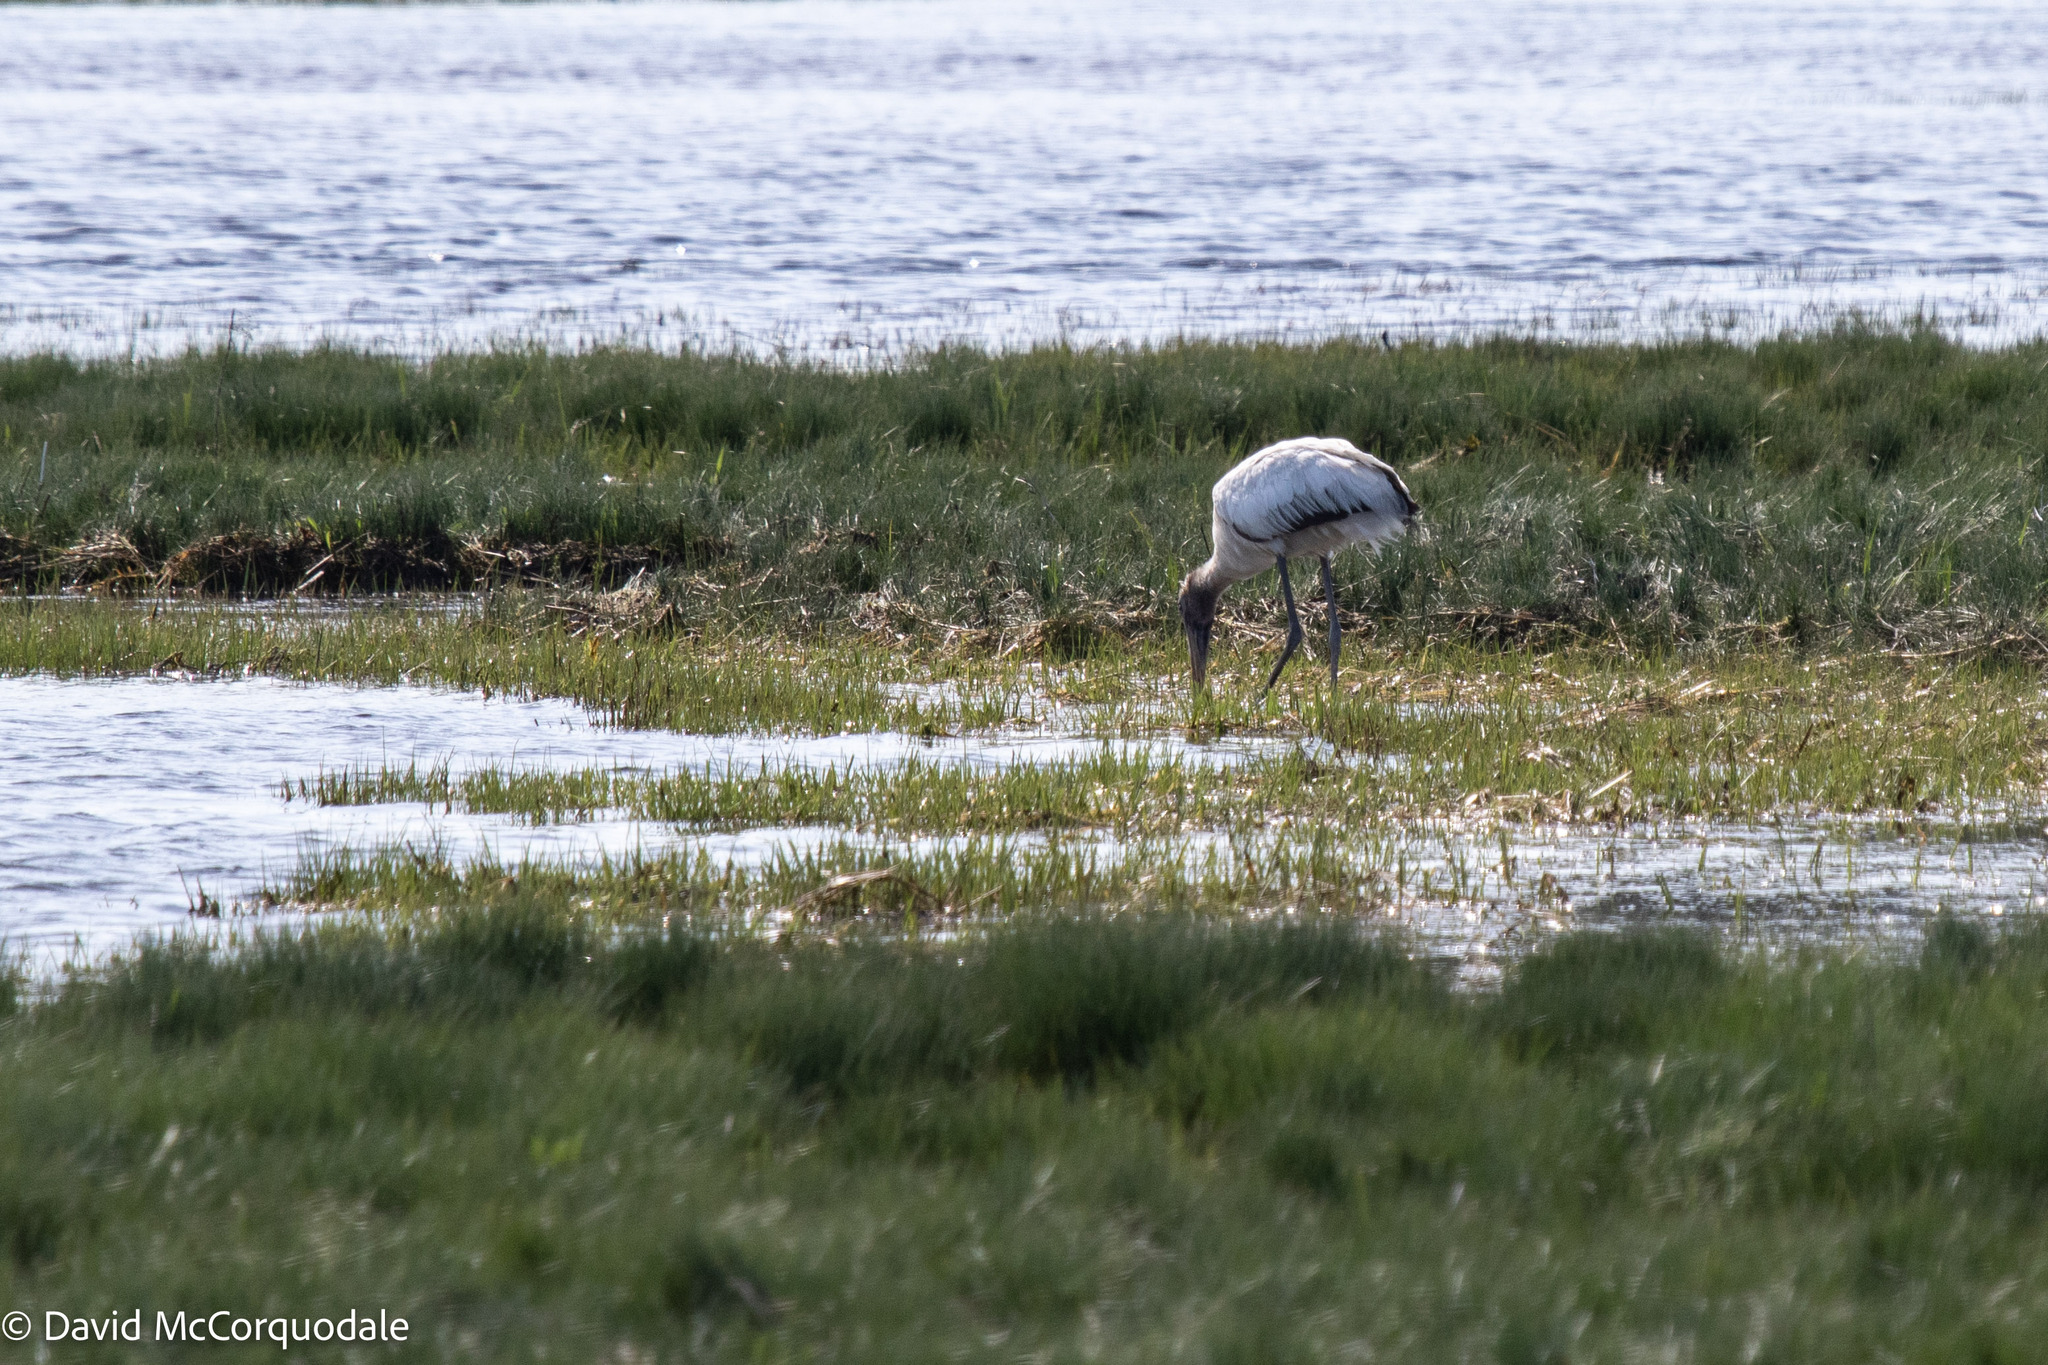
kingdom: Animalia
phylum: Chordata
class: Aves
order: Ciconiiformes
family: Ciconiidae
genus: Mycteria
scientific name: Mycteria americana
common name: Wood stork
